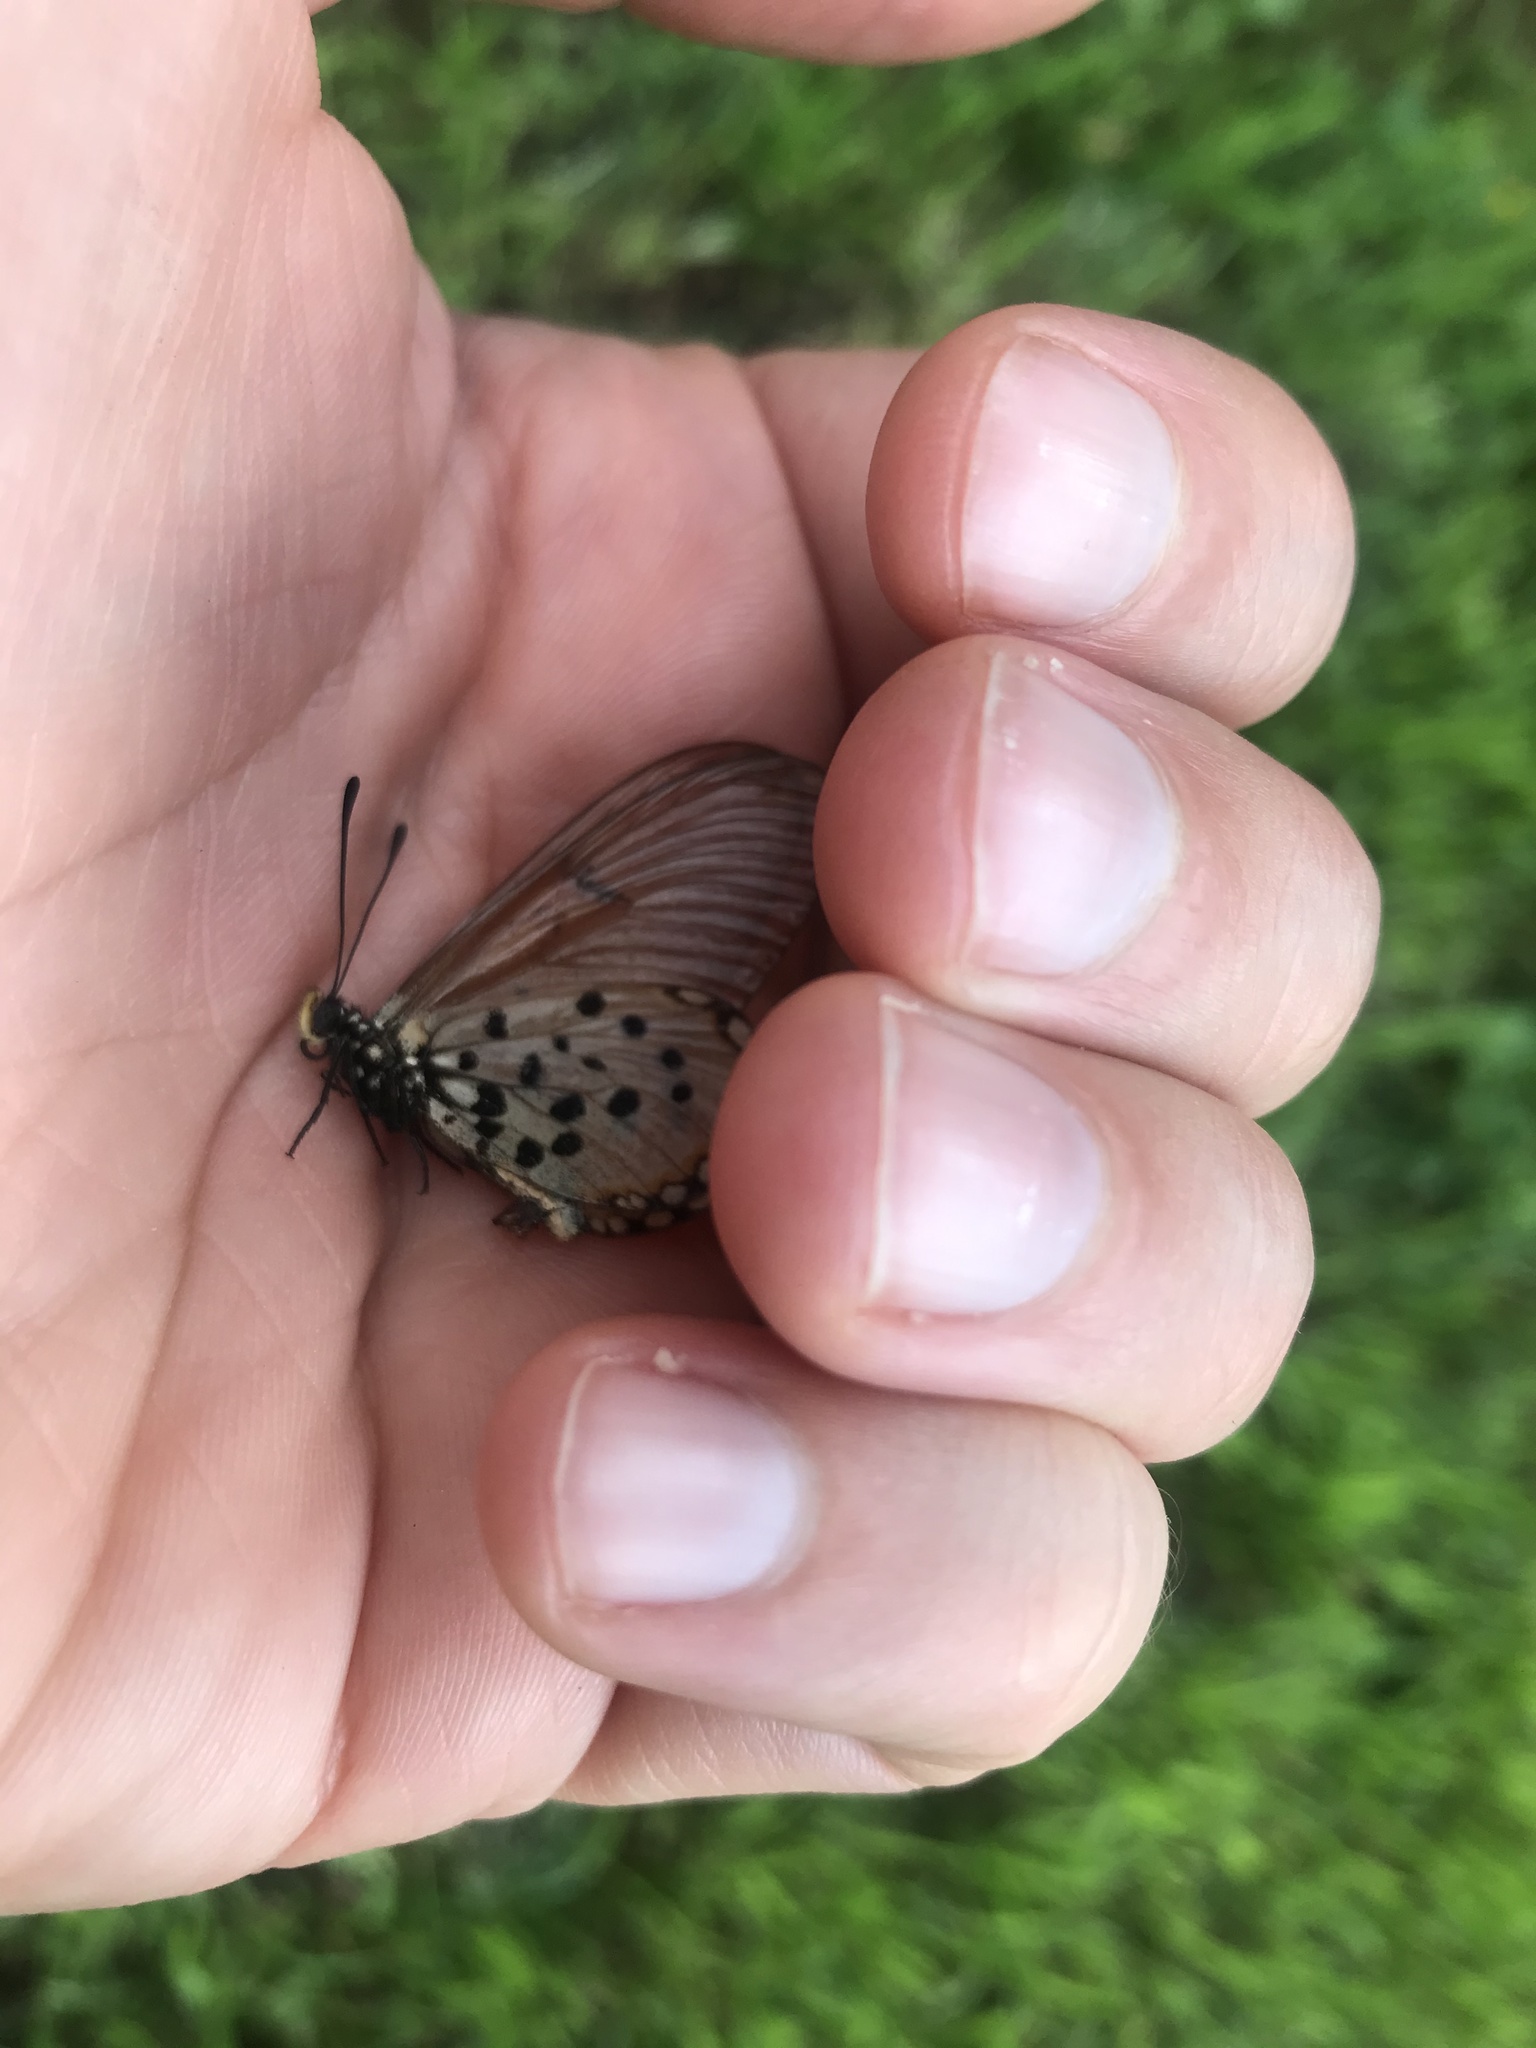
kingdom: Animalia
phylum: Arthropoda
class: Insecta
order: Lepidoptera
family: Nymphalidae
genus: Acraea
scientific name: Acraea horta
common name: Garden acraea
